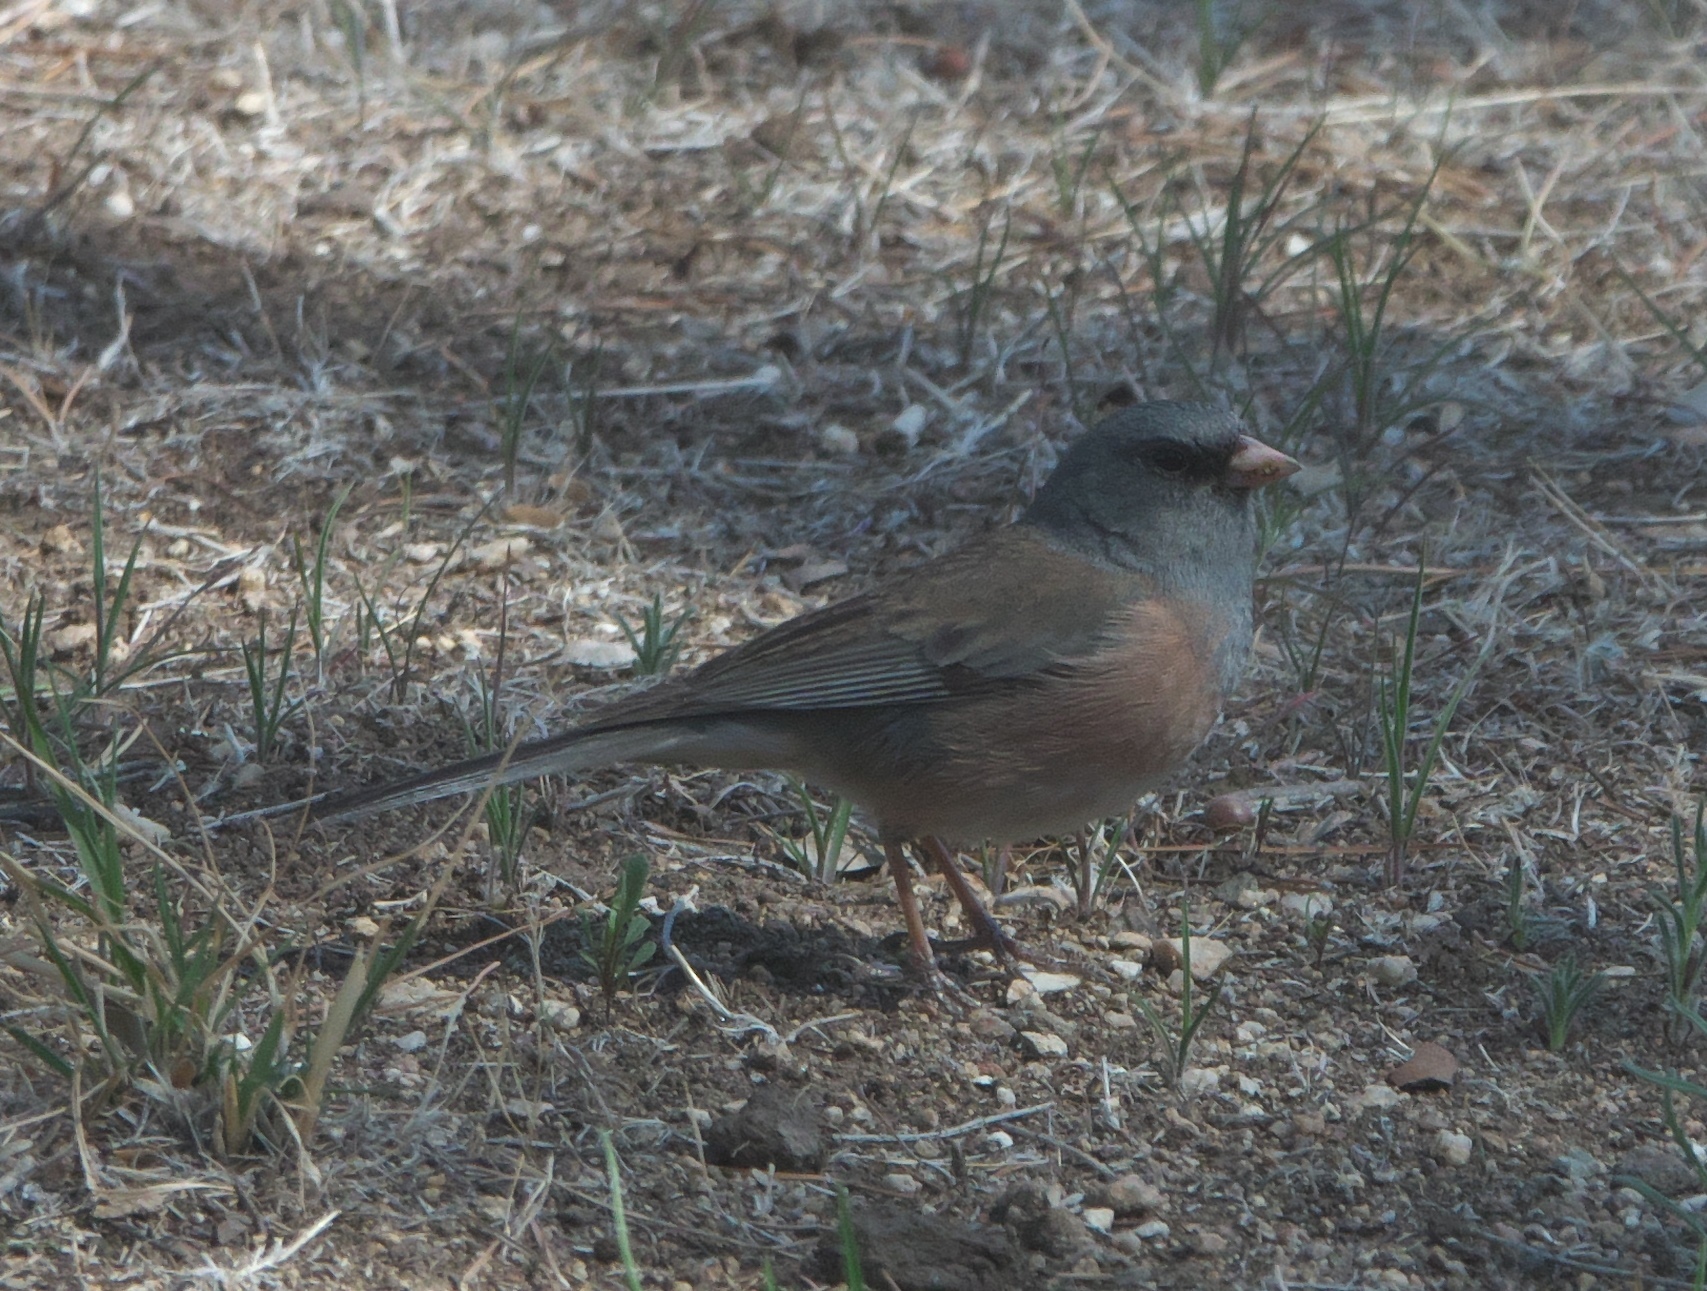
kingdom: Animalia
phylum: Chordata
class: Aves
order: Passeriformes
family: Passerellidae
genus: Junco
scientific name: Junco hyemalis
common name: Dark-eyed junco
